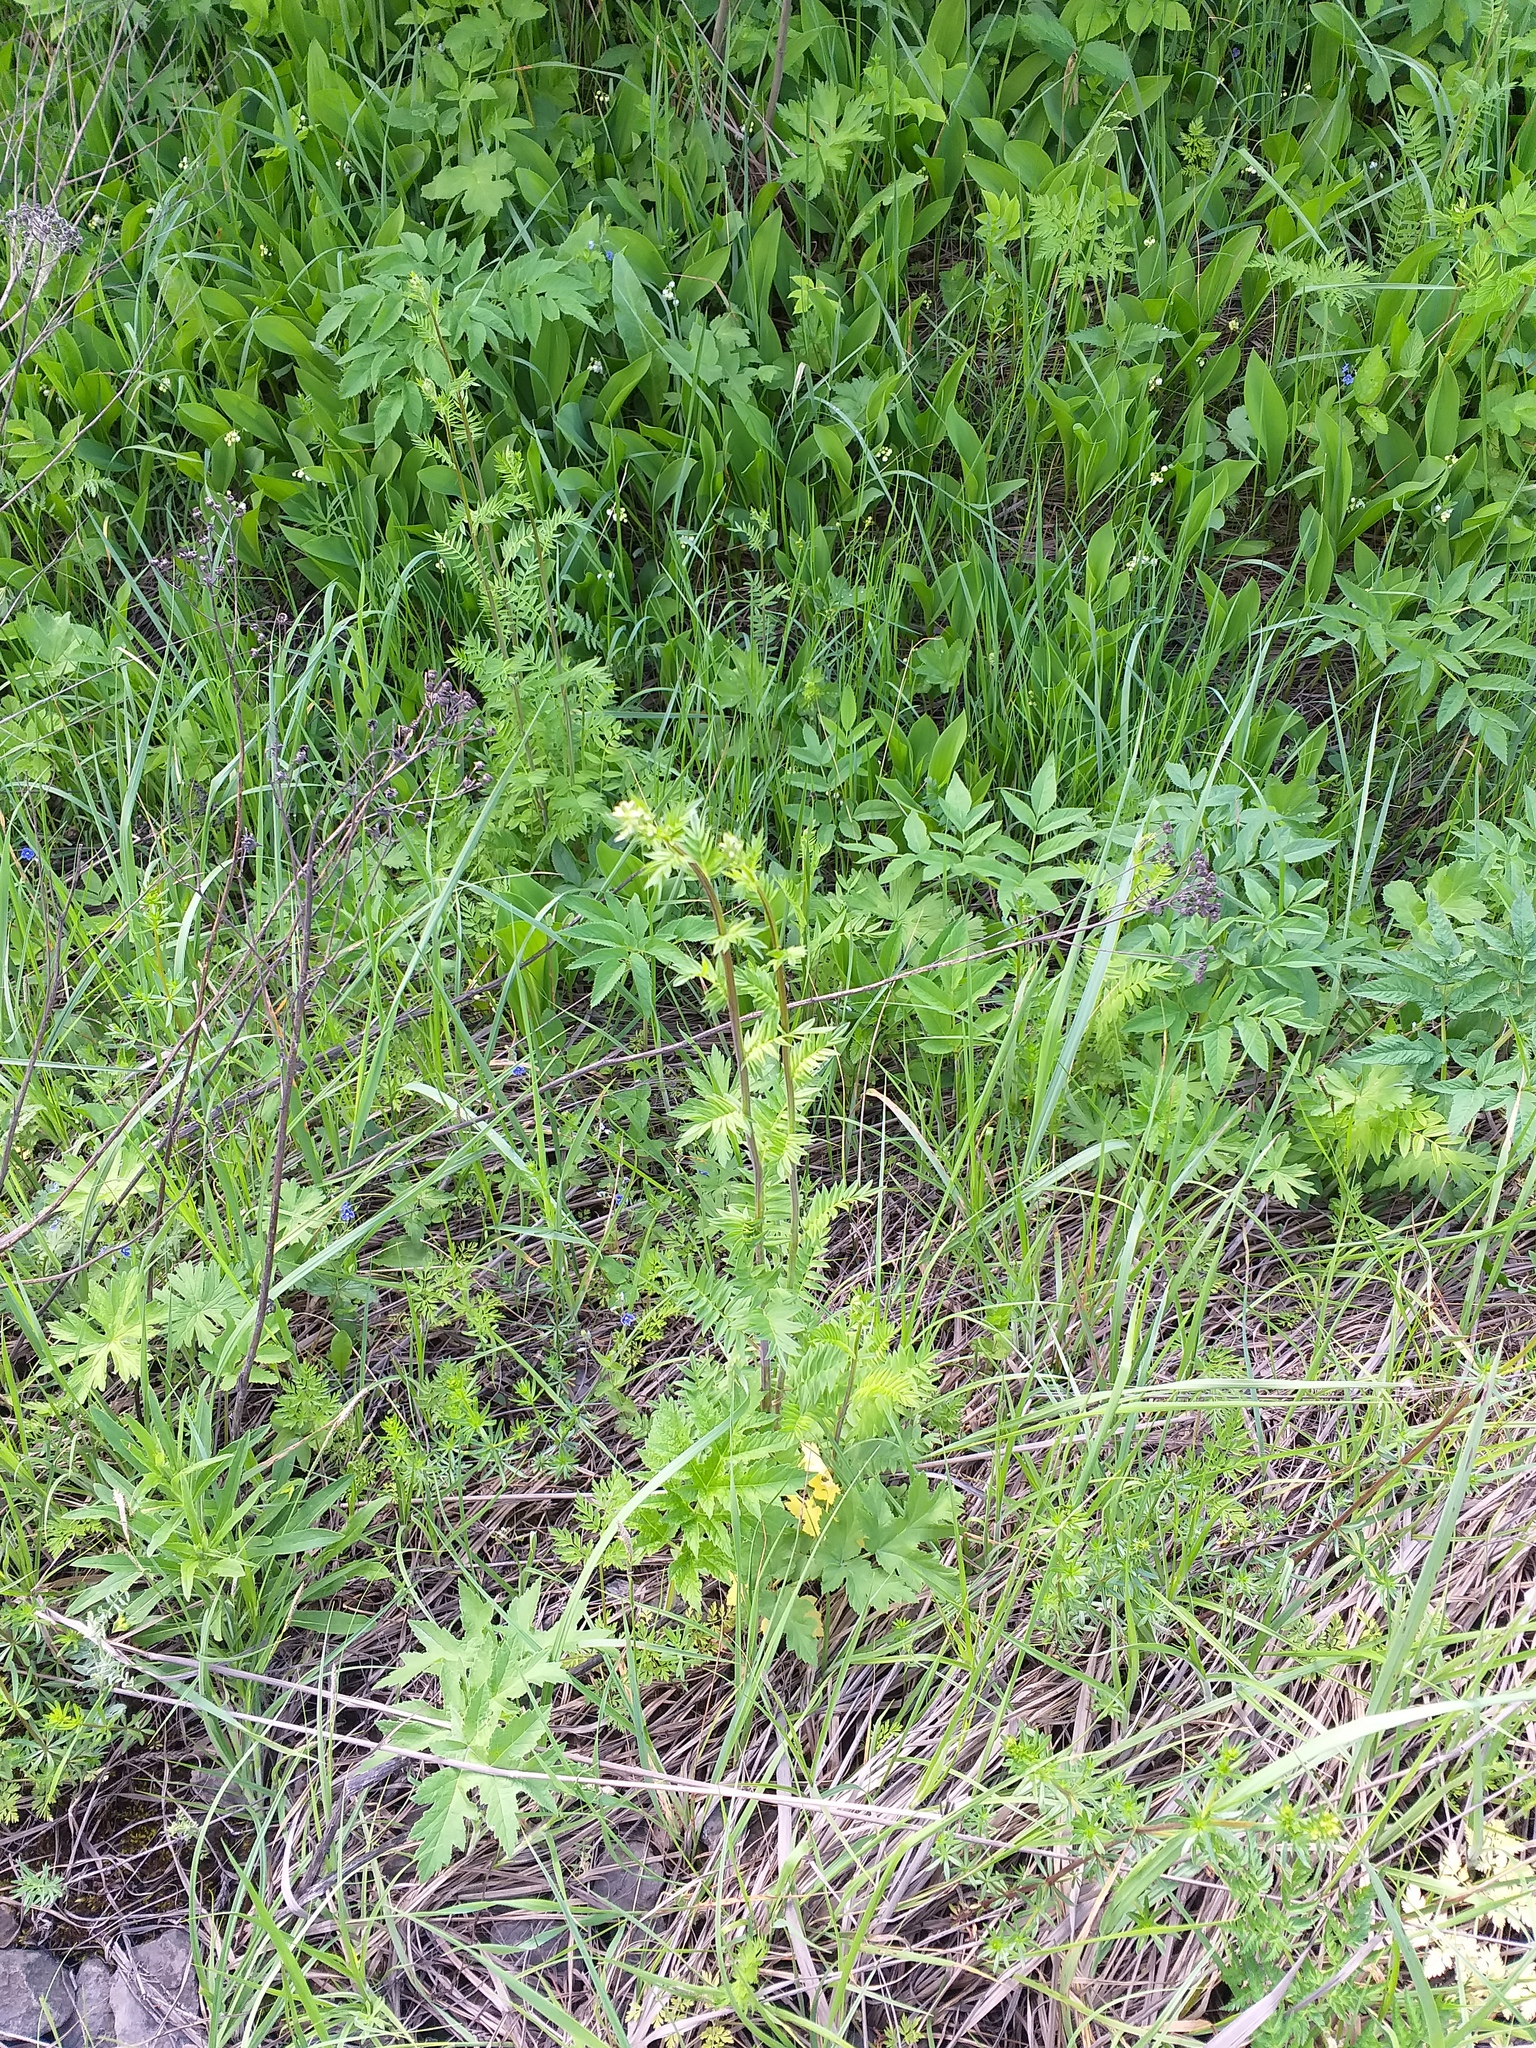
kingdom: Plantae
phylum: Tracheophyta
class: Magnoliopsida
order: Ericales
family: Polemoniaceae
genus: Polemonium
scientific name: Polemonium caeruleum
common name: Jacob's-ladder
